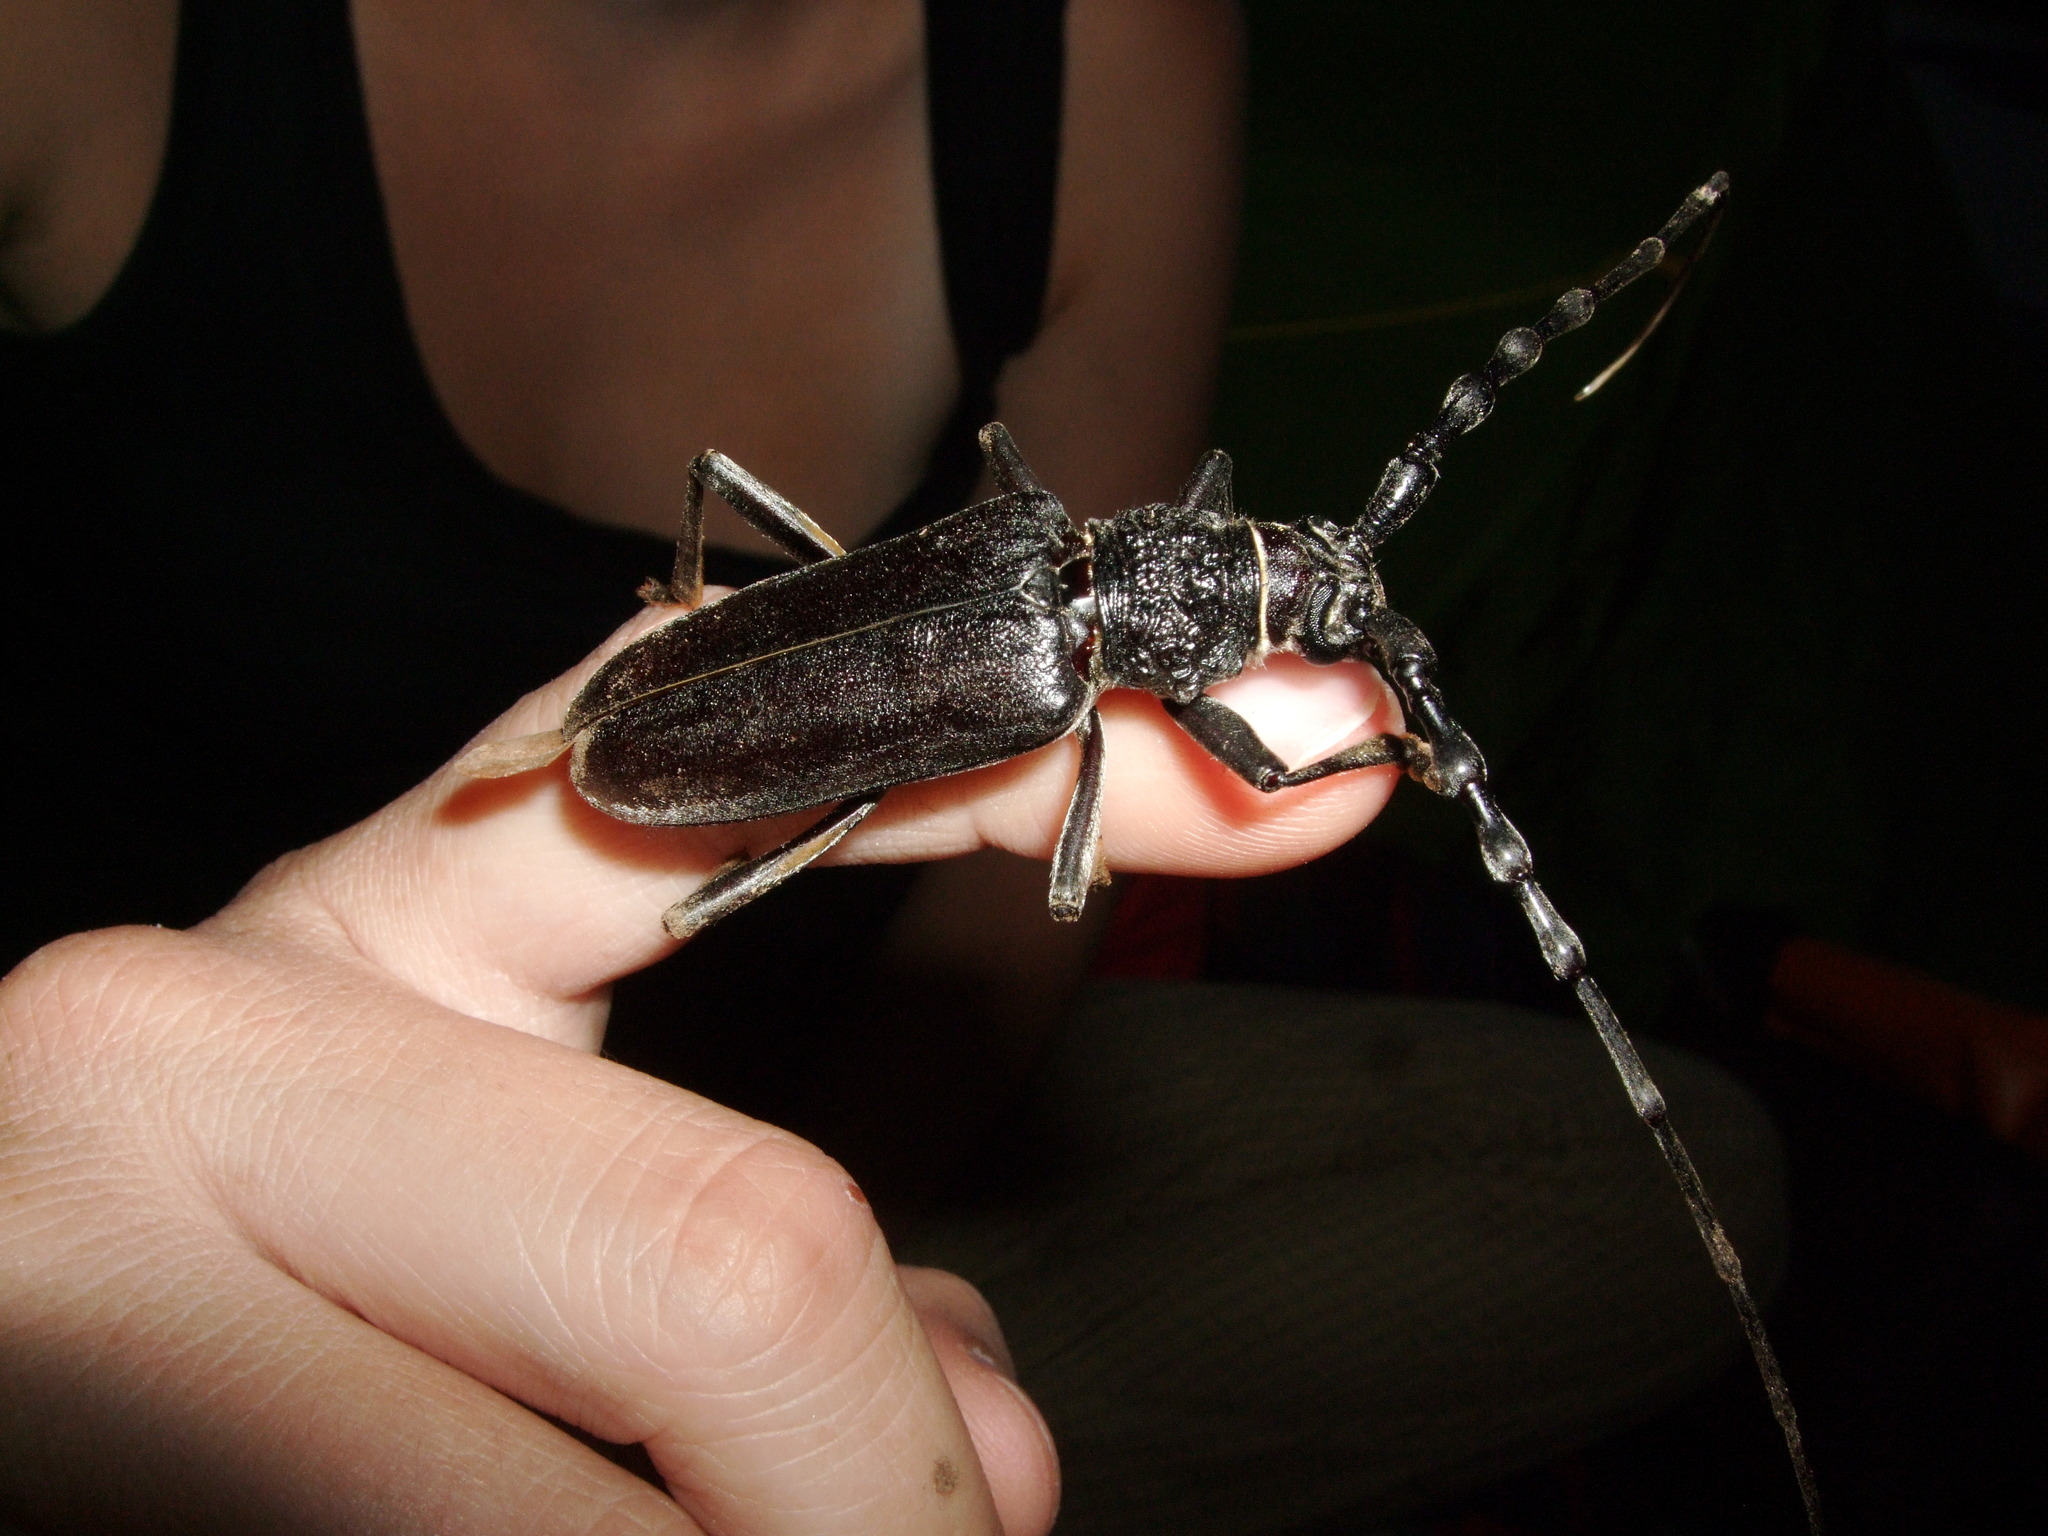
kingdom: Animalia
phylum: Arthropoda
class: Insecta
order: Coleoptera
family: Cerambycidae
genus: Cerambyx
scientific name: Cerambyx carinatus
